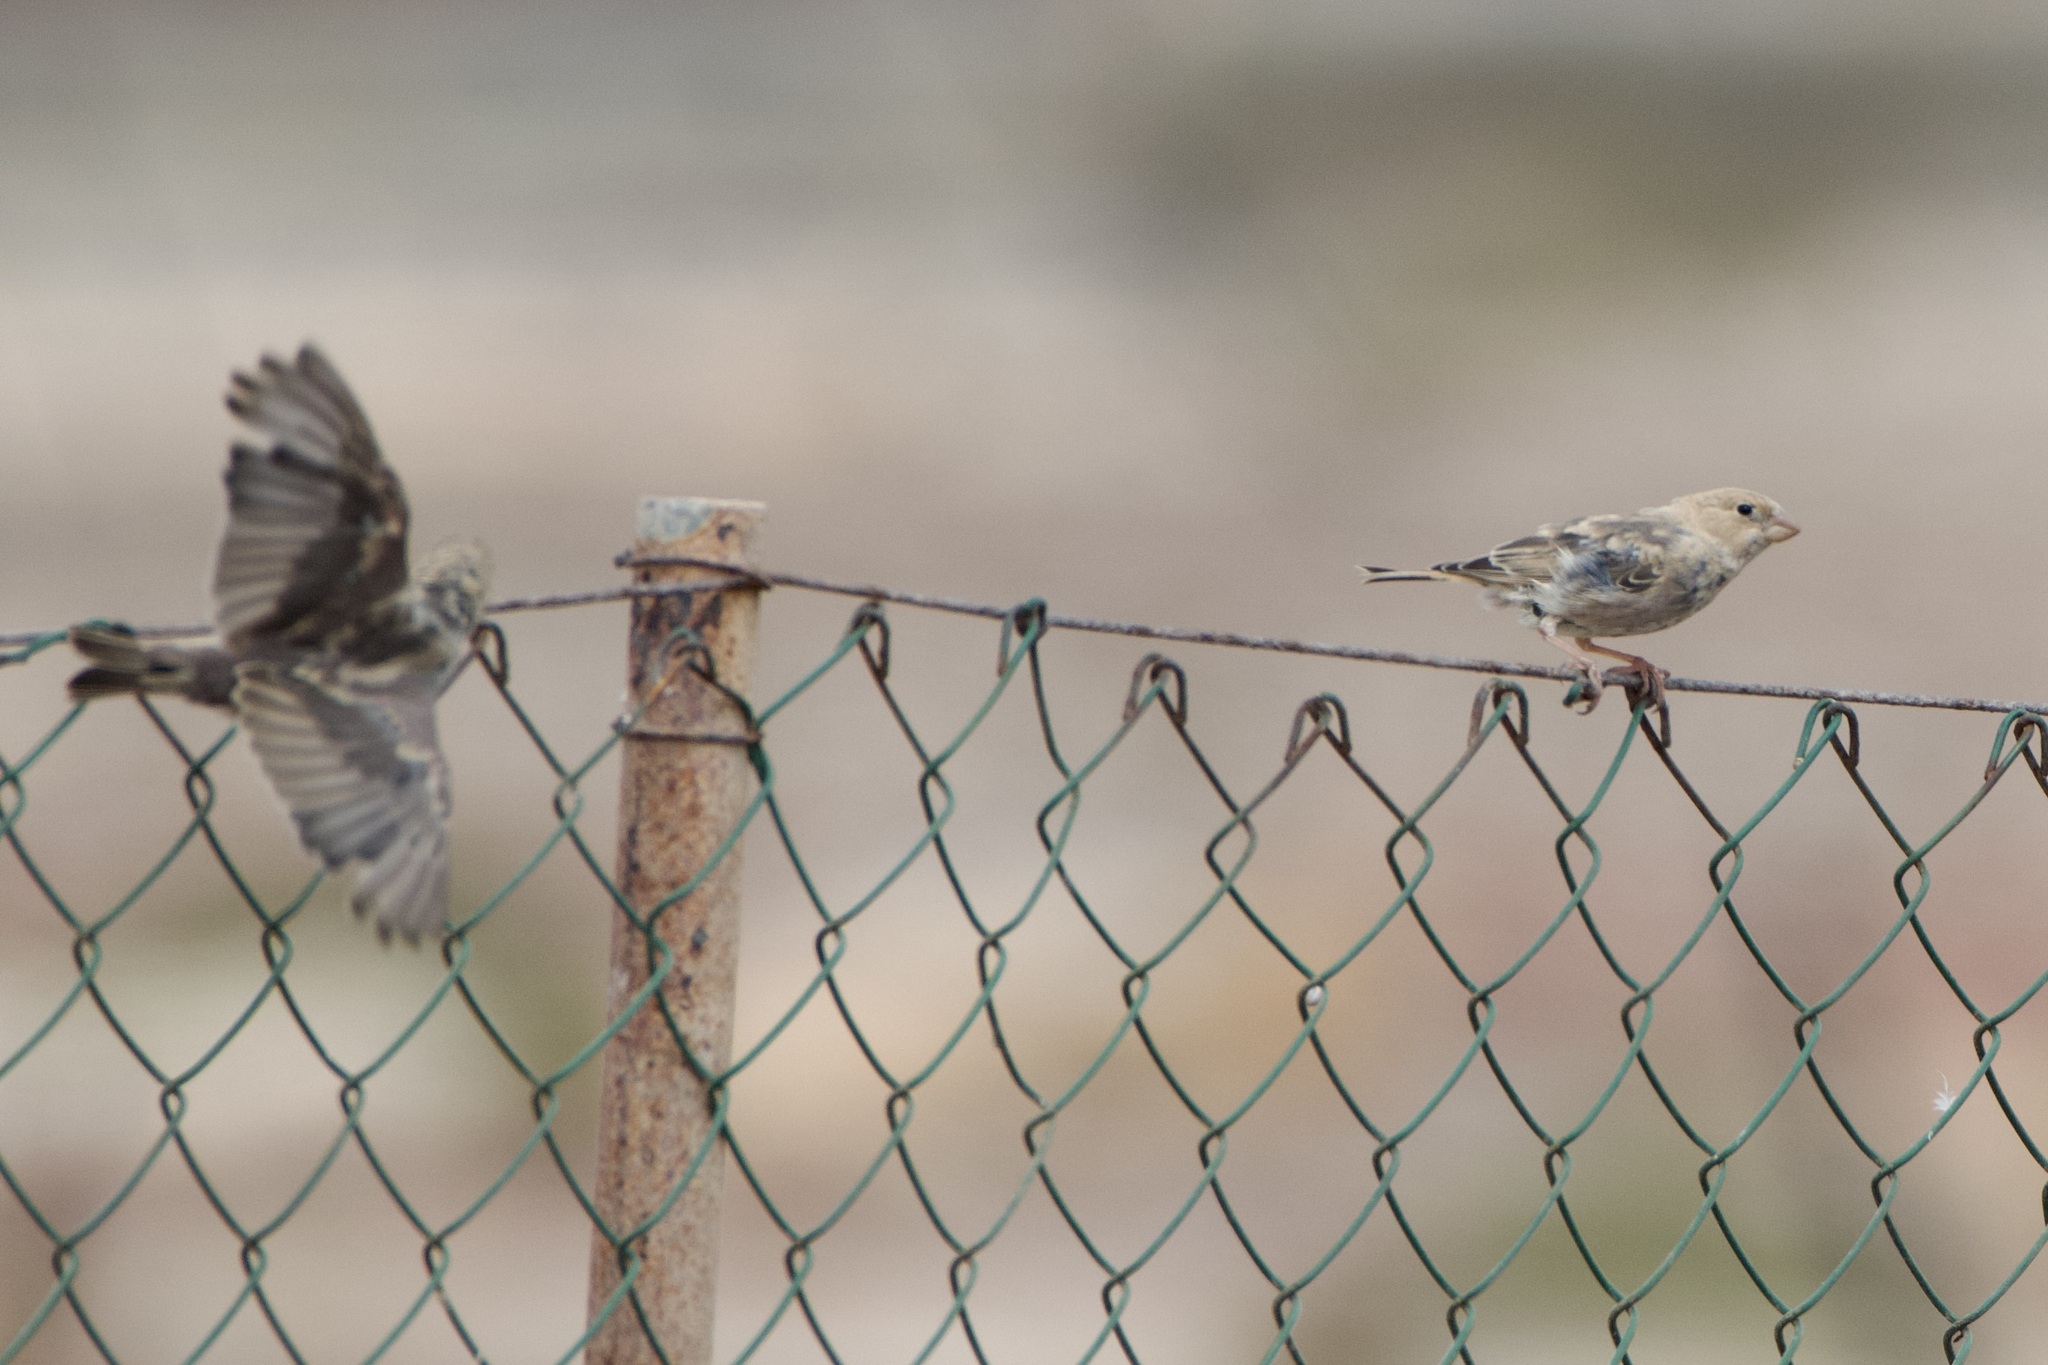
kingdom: Animalia
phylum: Chordata
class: Aves
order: Passeriformes
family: Fringillidae
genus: Bucanetes
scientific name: Bucanetes githagineus
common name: Trumpeter finch
